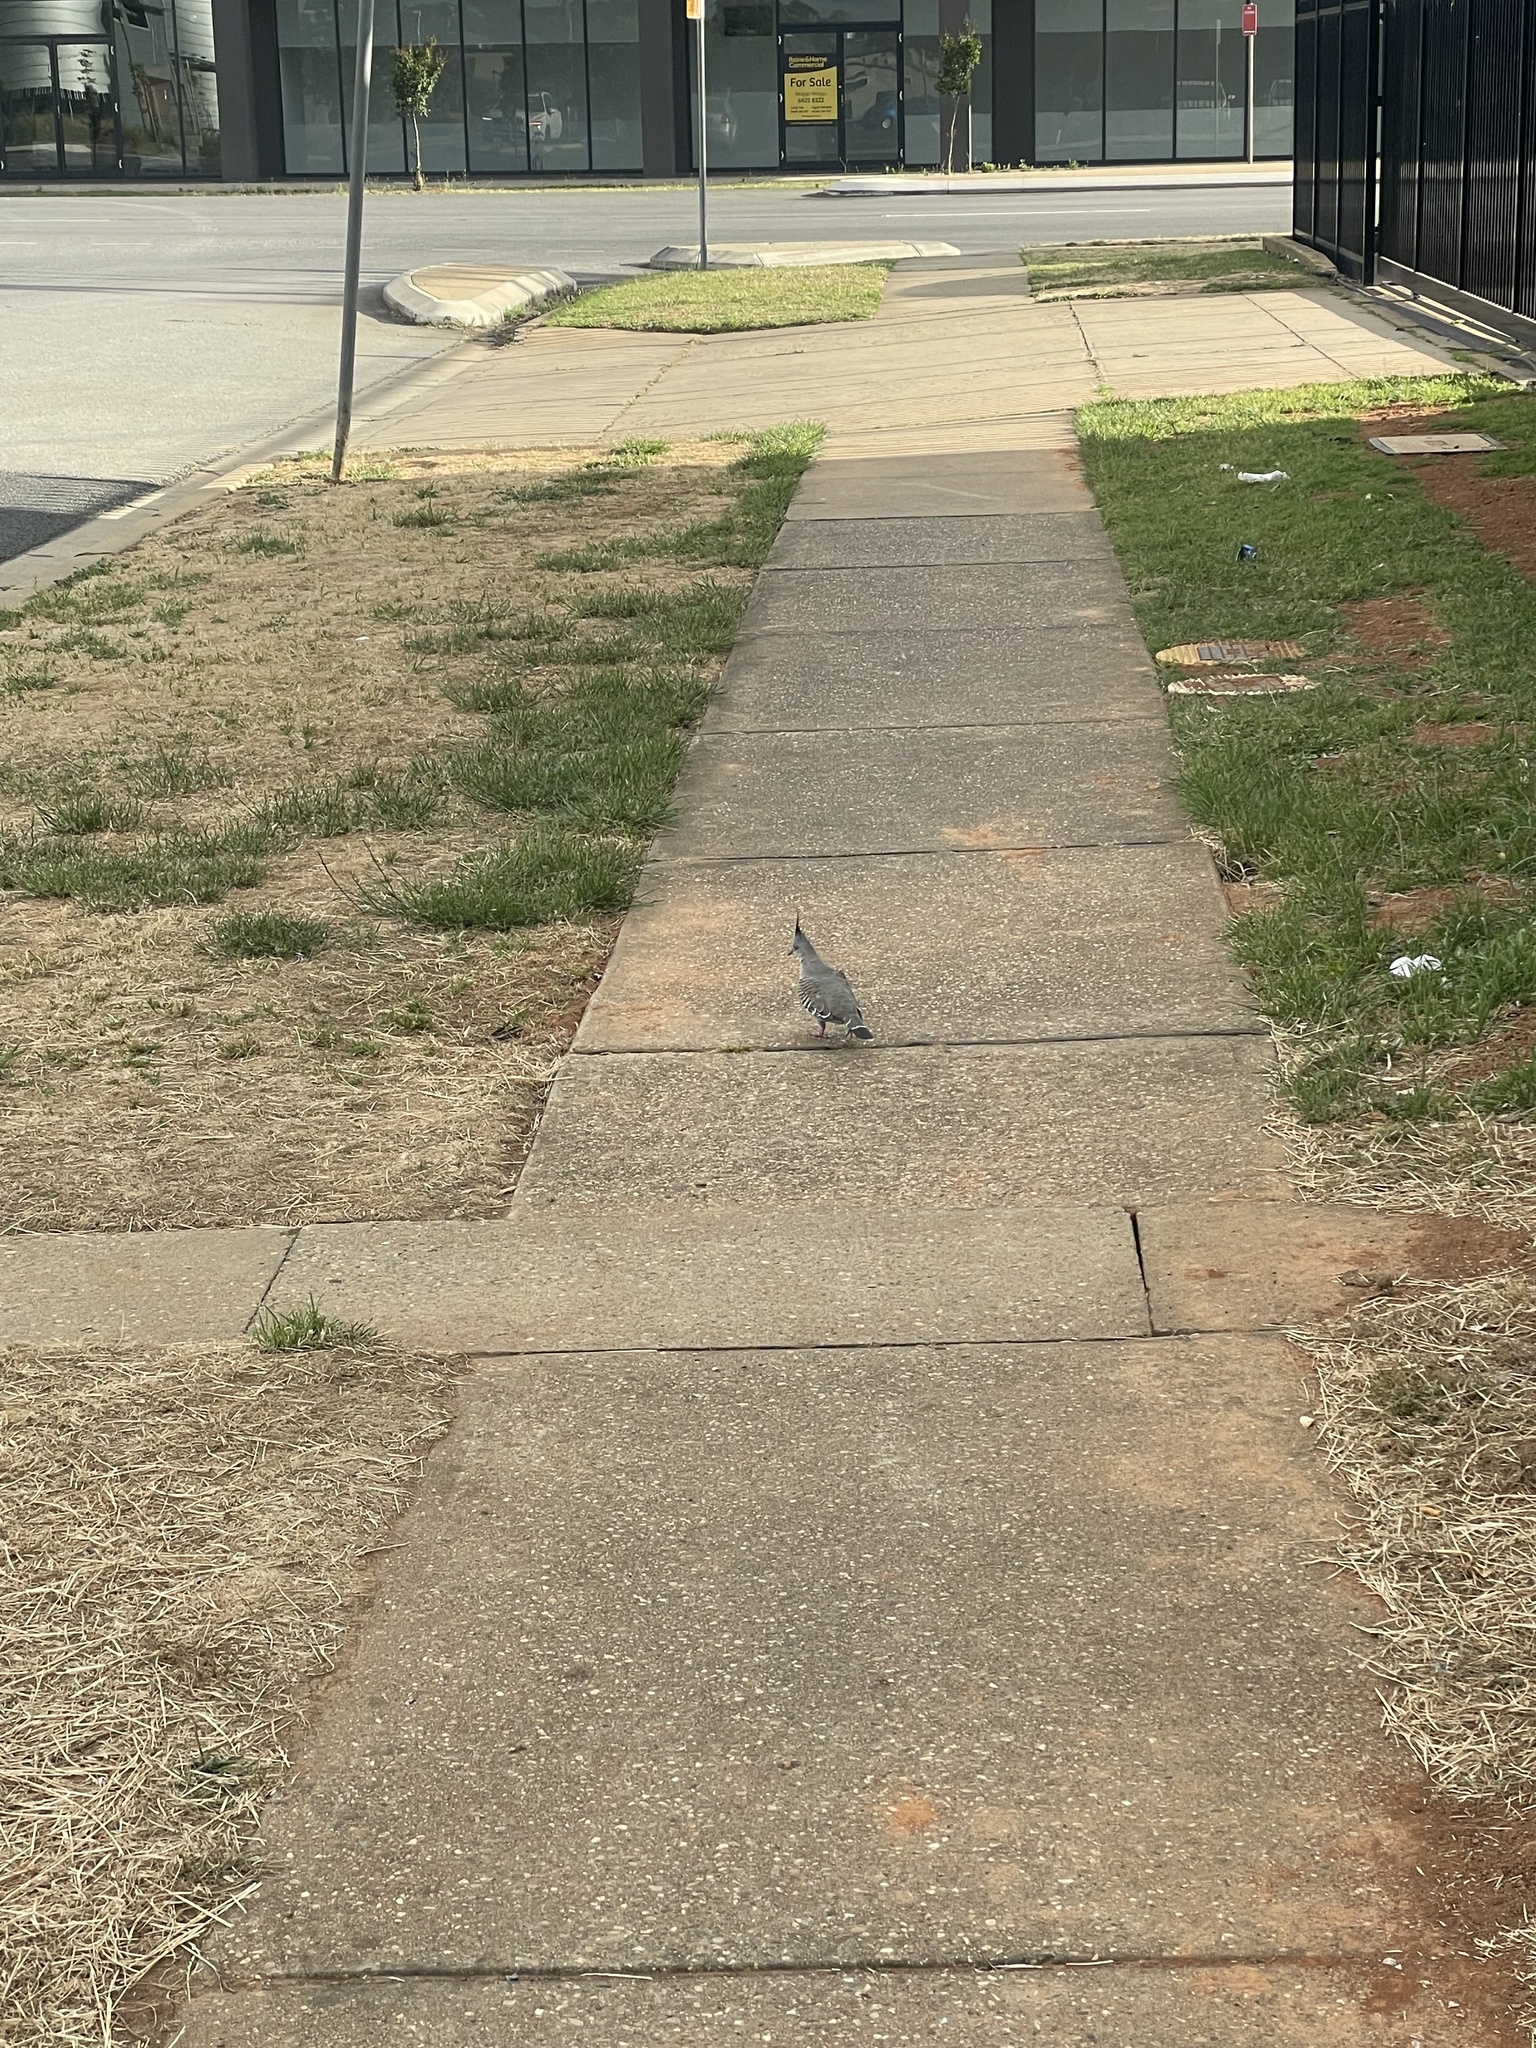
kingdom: Animalia
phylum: Chordata
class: Aves
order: Columbiformes
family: Columbidae
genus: Ocyphaps
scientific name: Ocyphaps lophotes
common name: Crested pigeon
